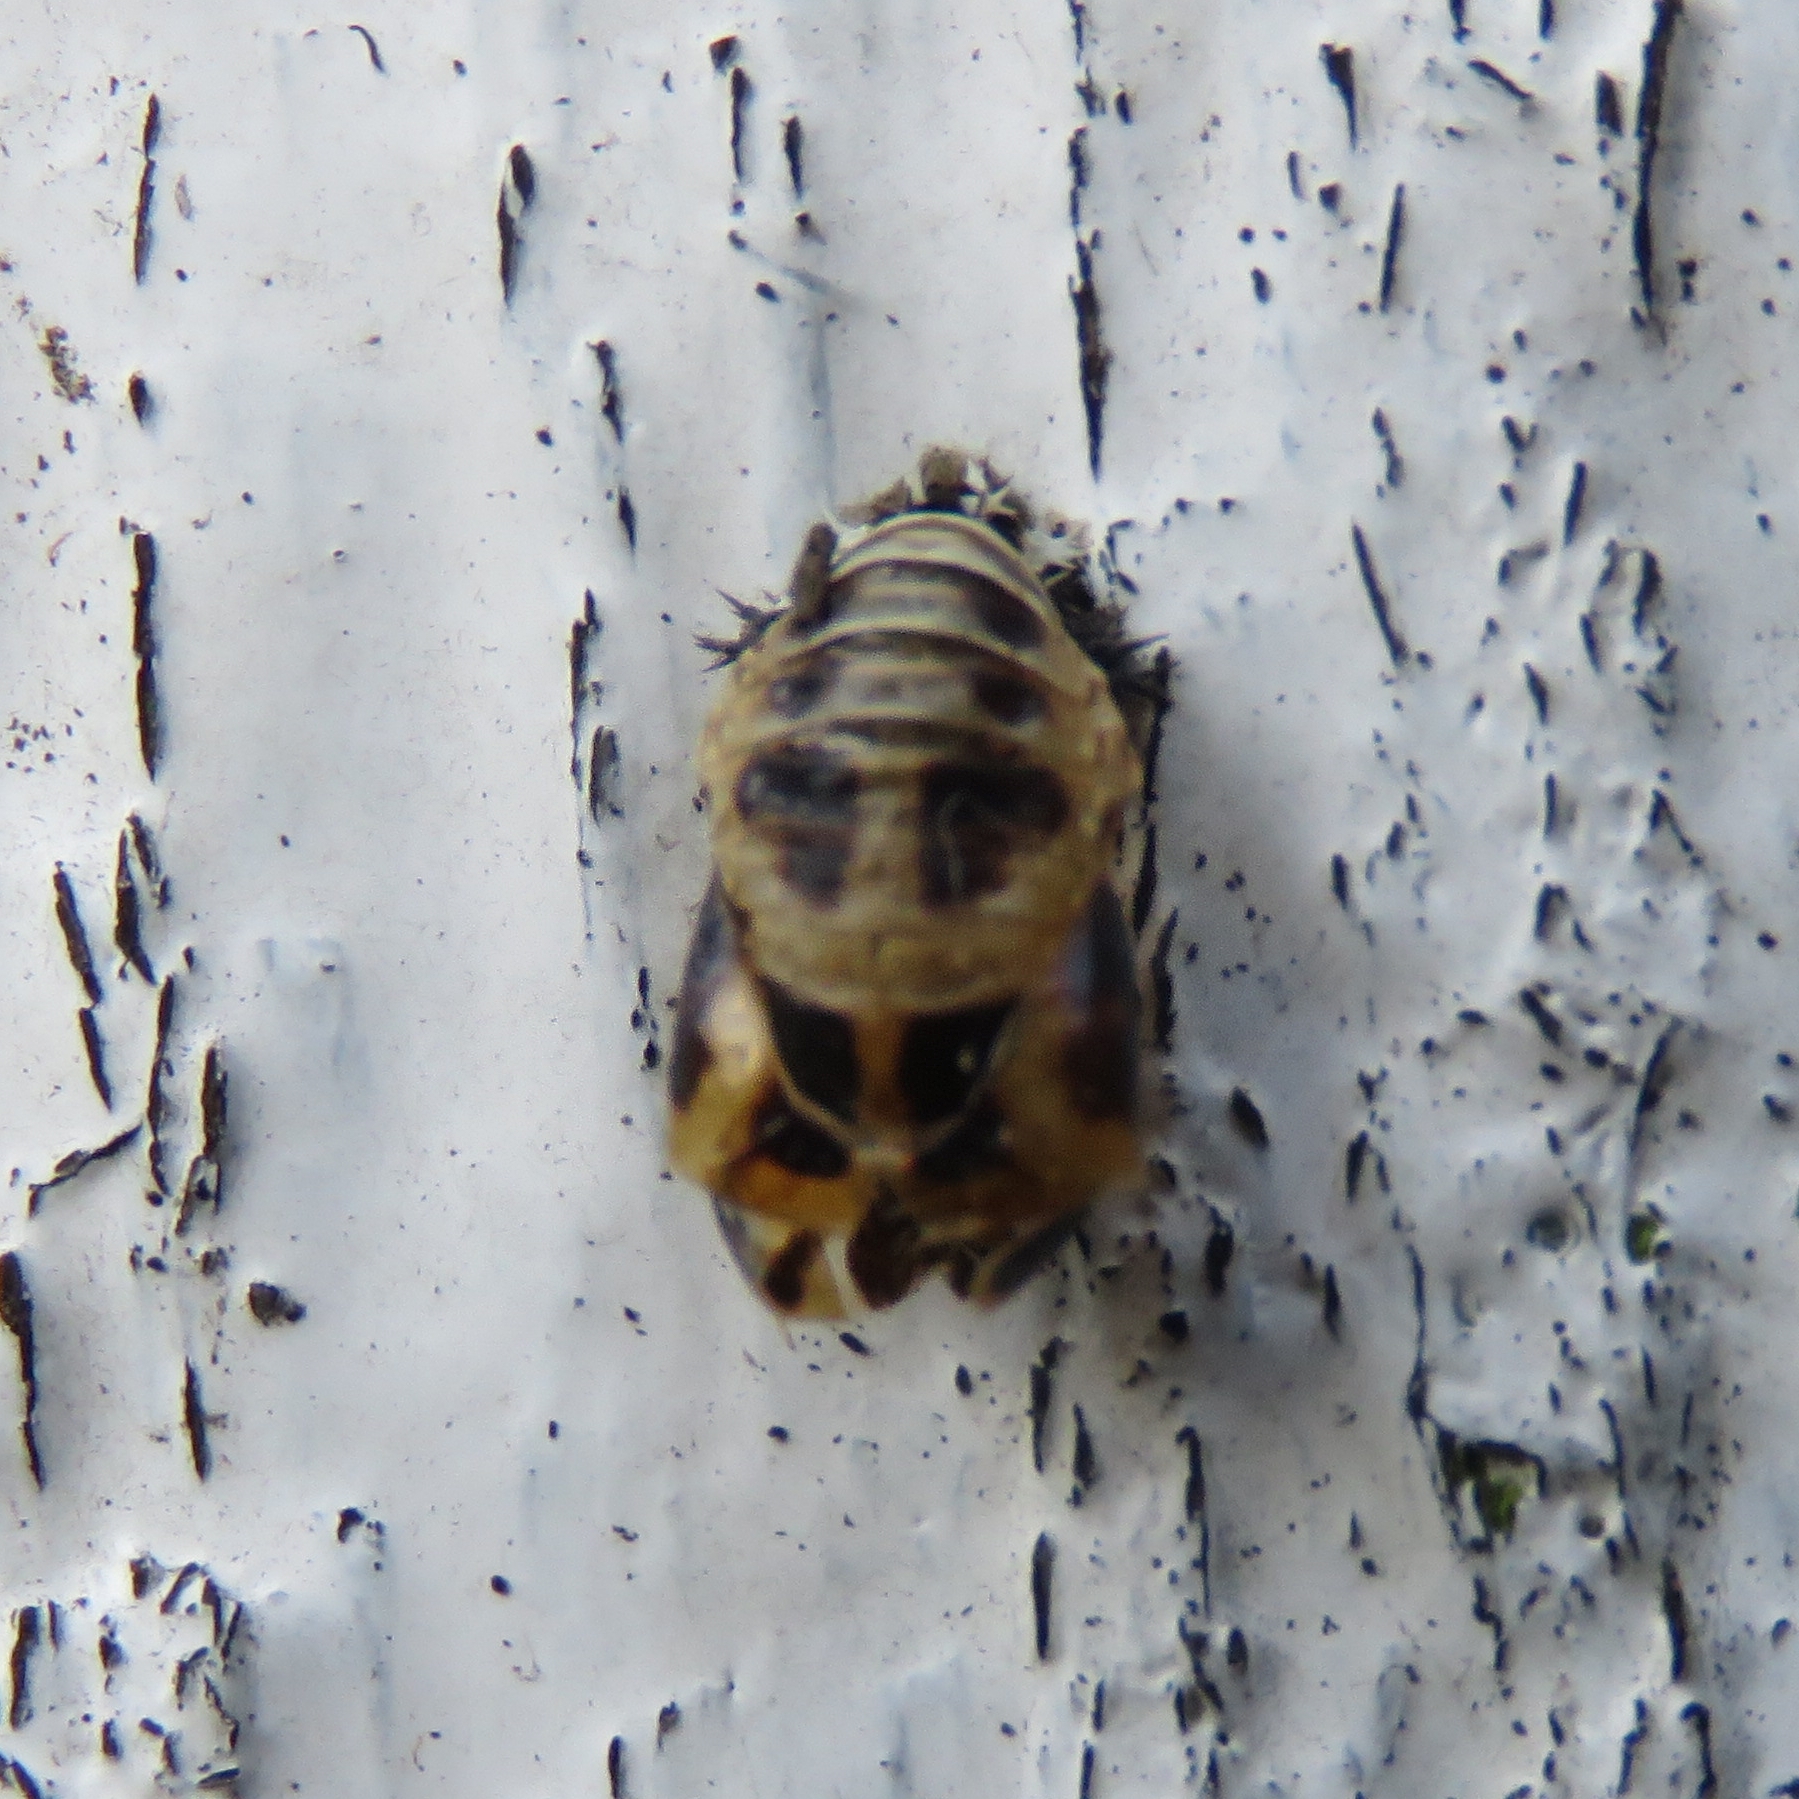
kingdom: Animalia
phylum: Arthropoda
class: Insecta
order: Coleoptera
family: Coccinellidae
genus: Harmonia
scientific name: Harmonia axyridis
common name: Harlequin ladybird
